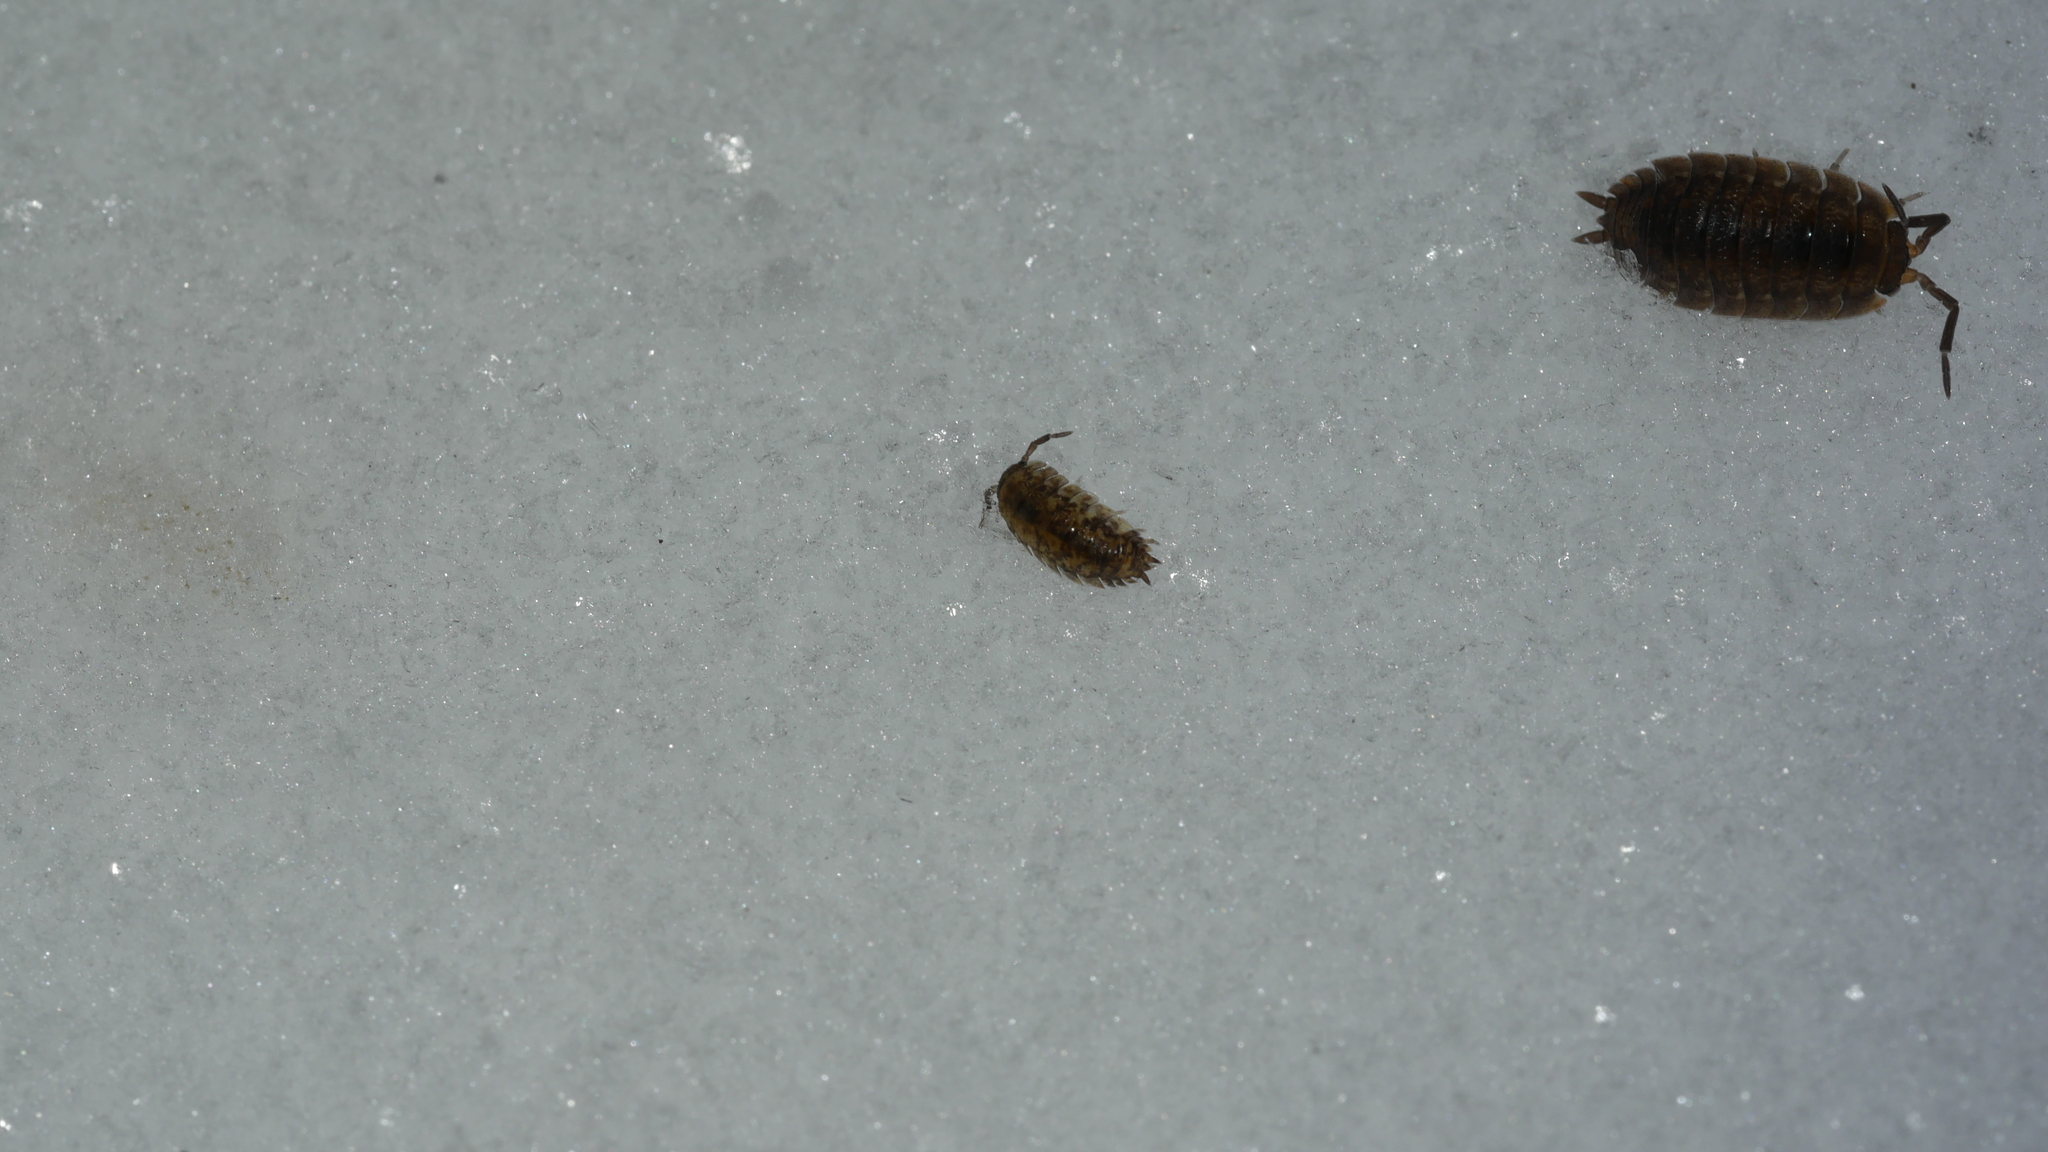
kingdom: Animalia
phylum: Arthropoda
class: Malacostraca
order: Isopoda
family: Porcellionidae
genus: Porcellio
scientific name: Porcellio scaber
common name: Common rough woodlouse
